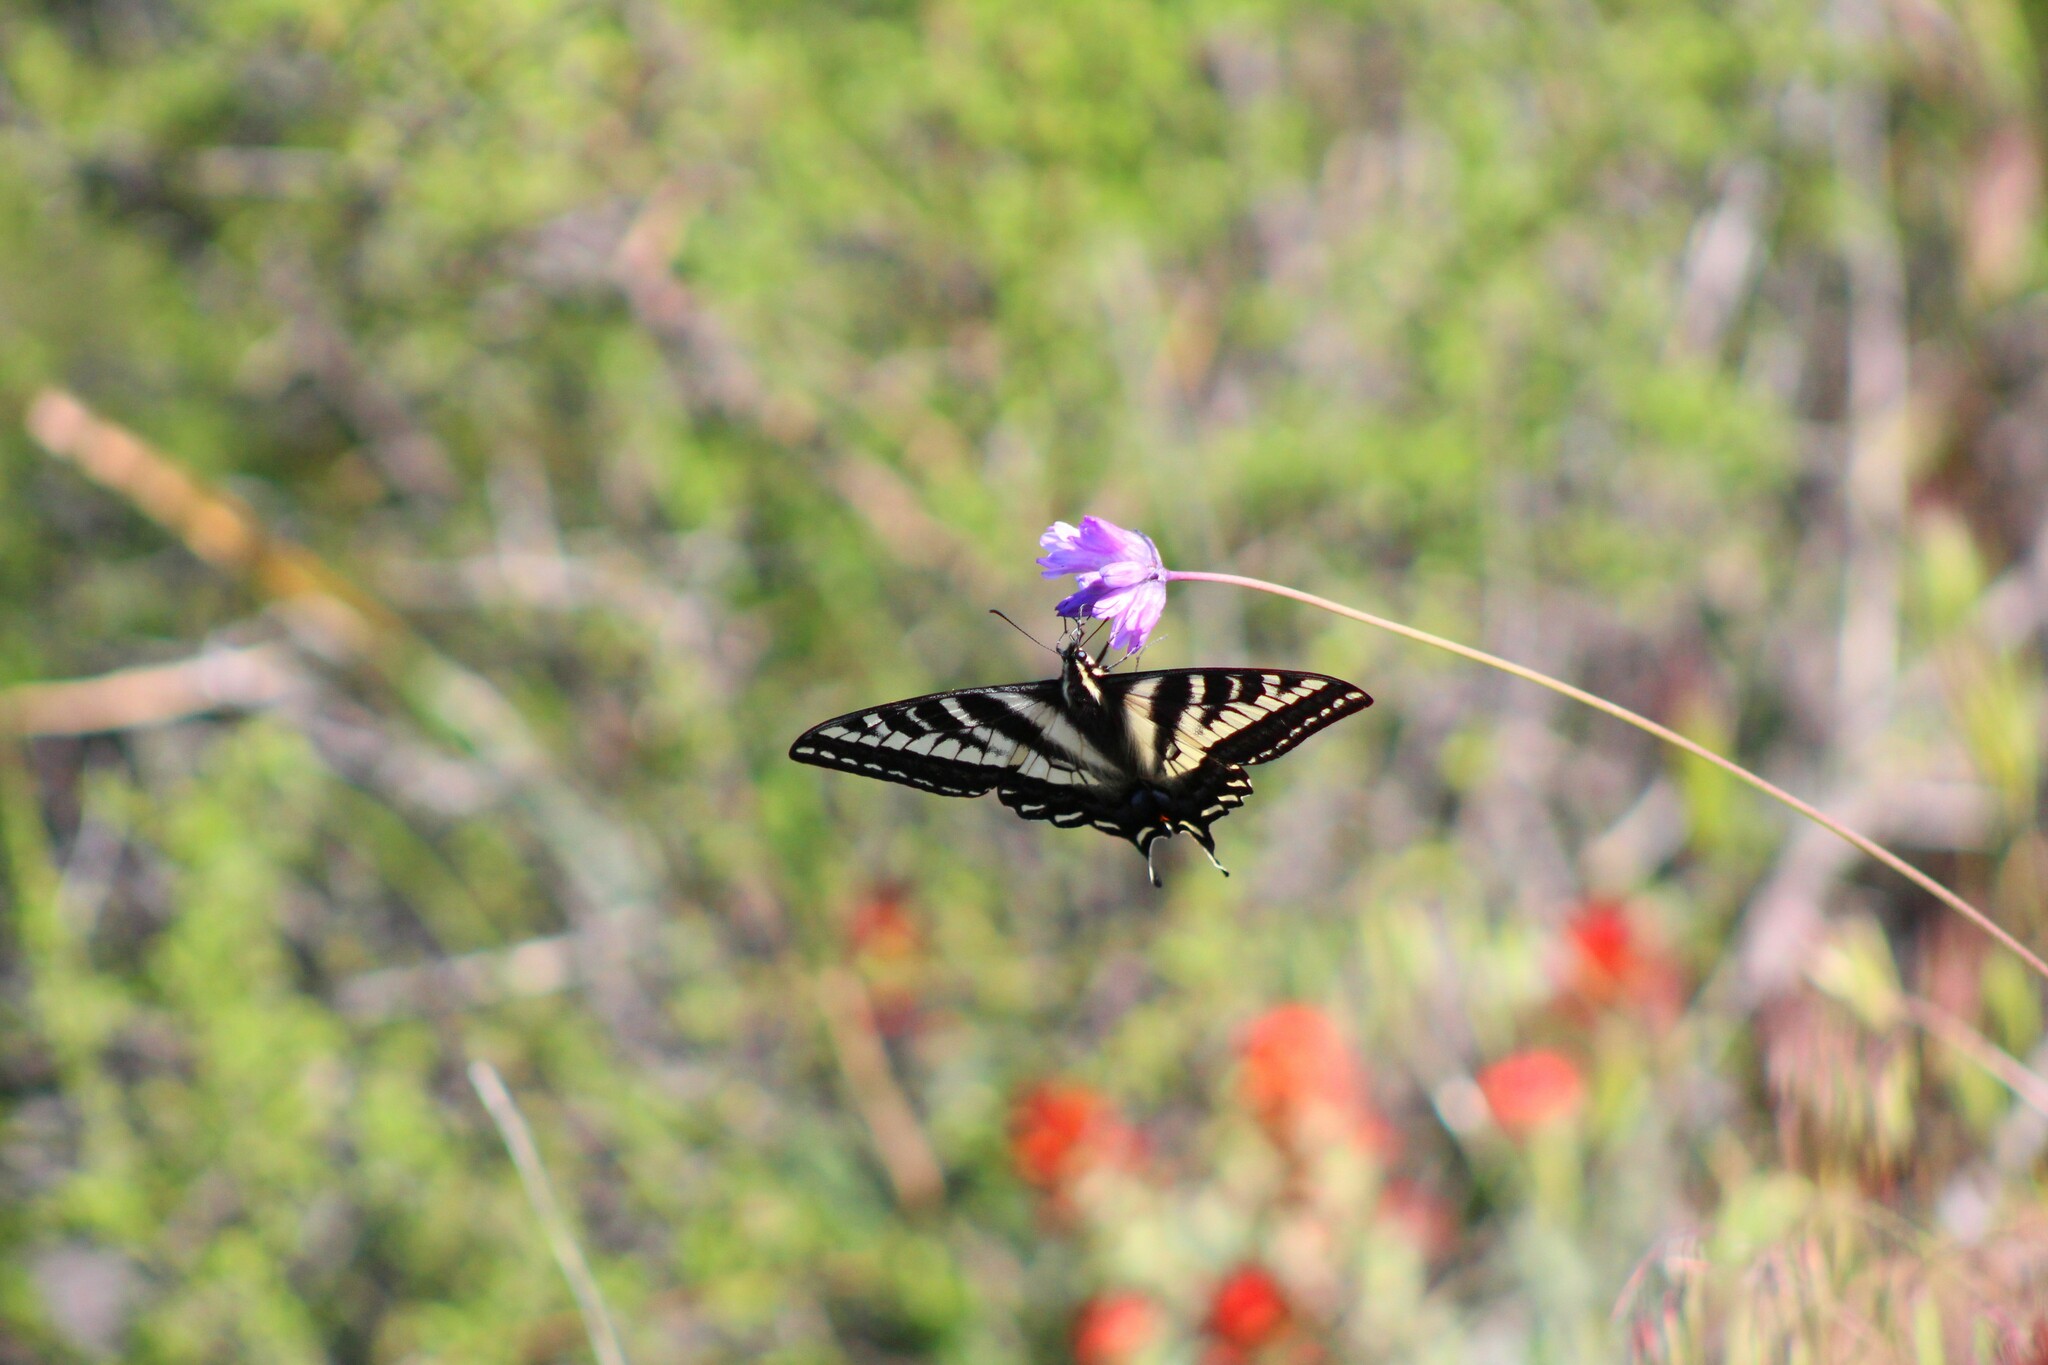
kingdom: Animalia
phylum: Arthropoda
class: Insecta
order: Lepidoptera
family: Papilionidae
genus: Papilio
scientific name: Papilio eurymedon
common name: Pale tiger swallowtail
